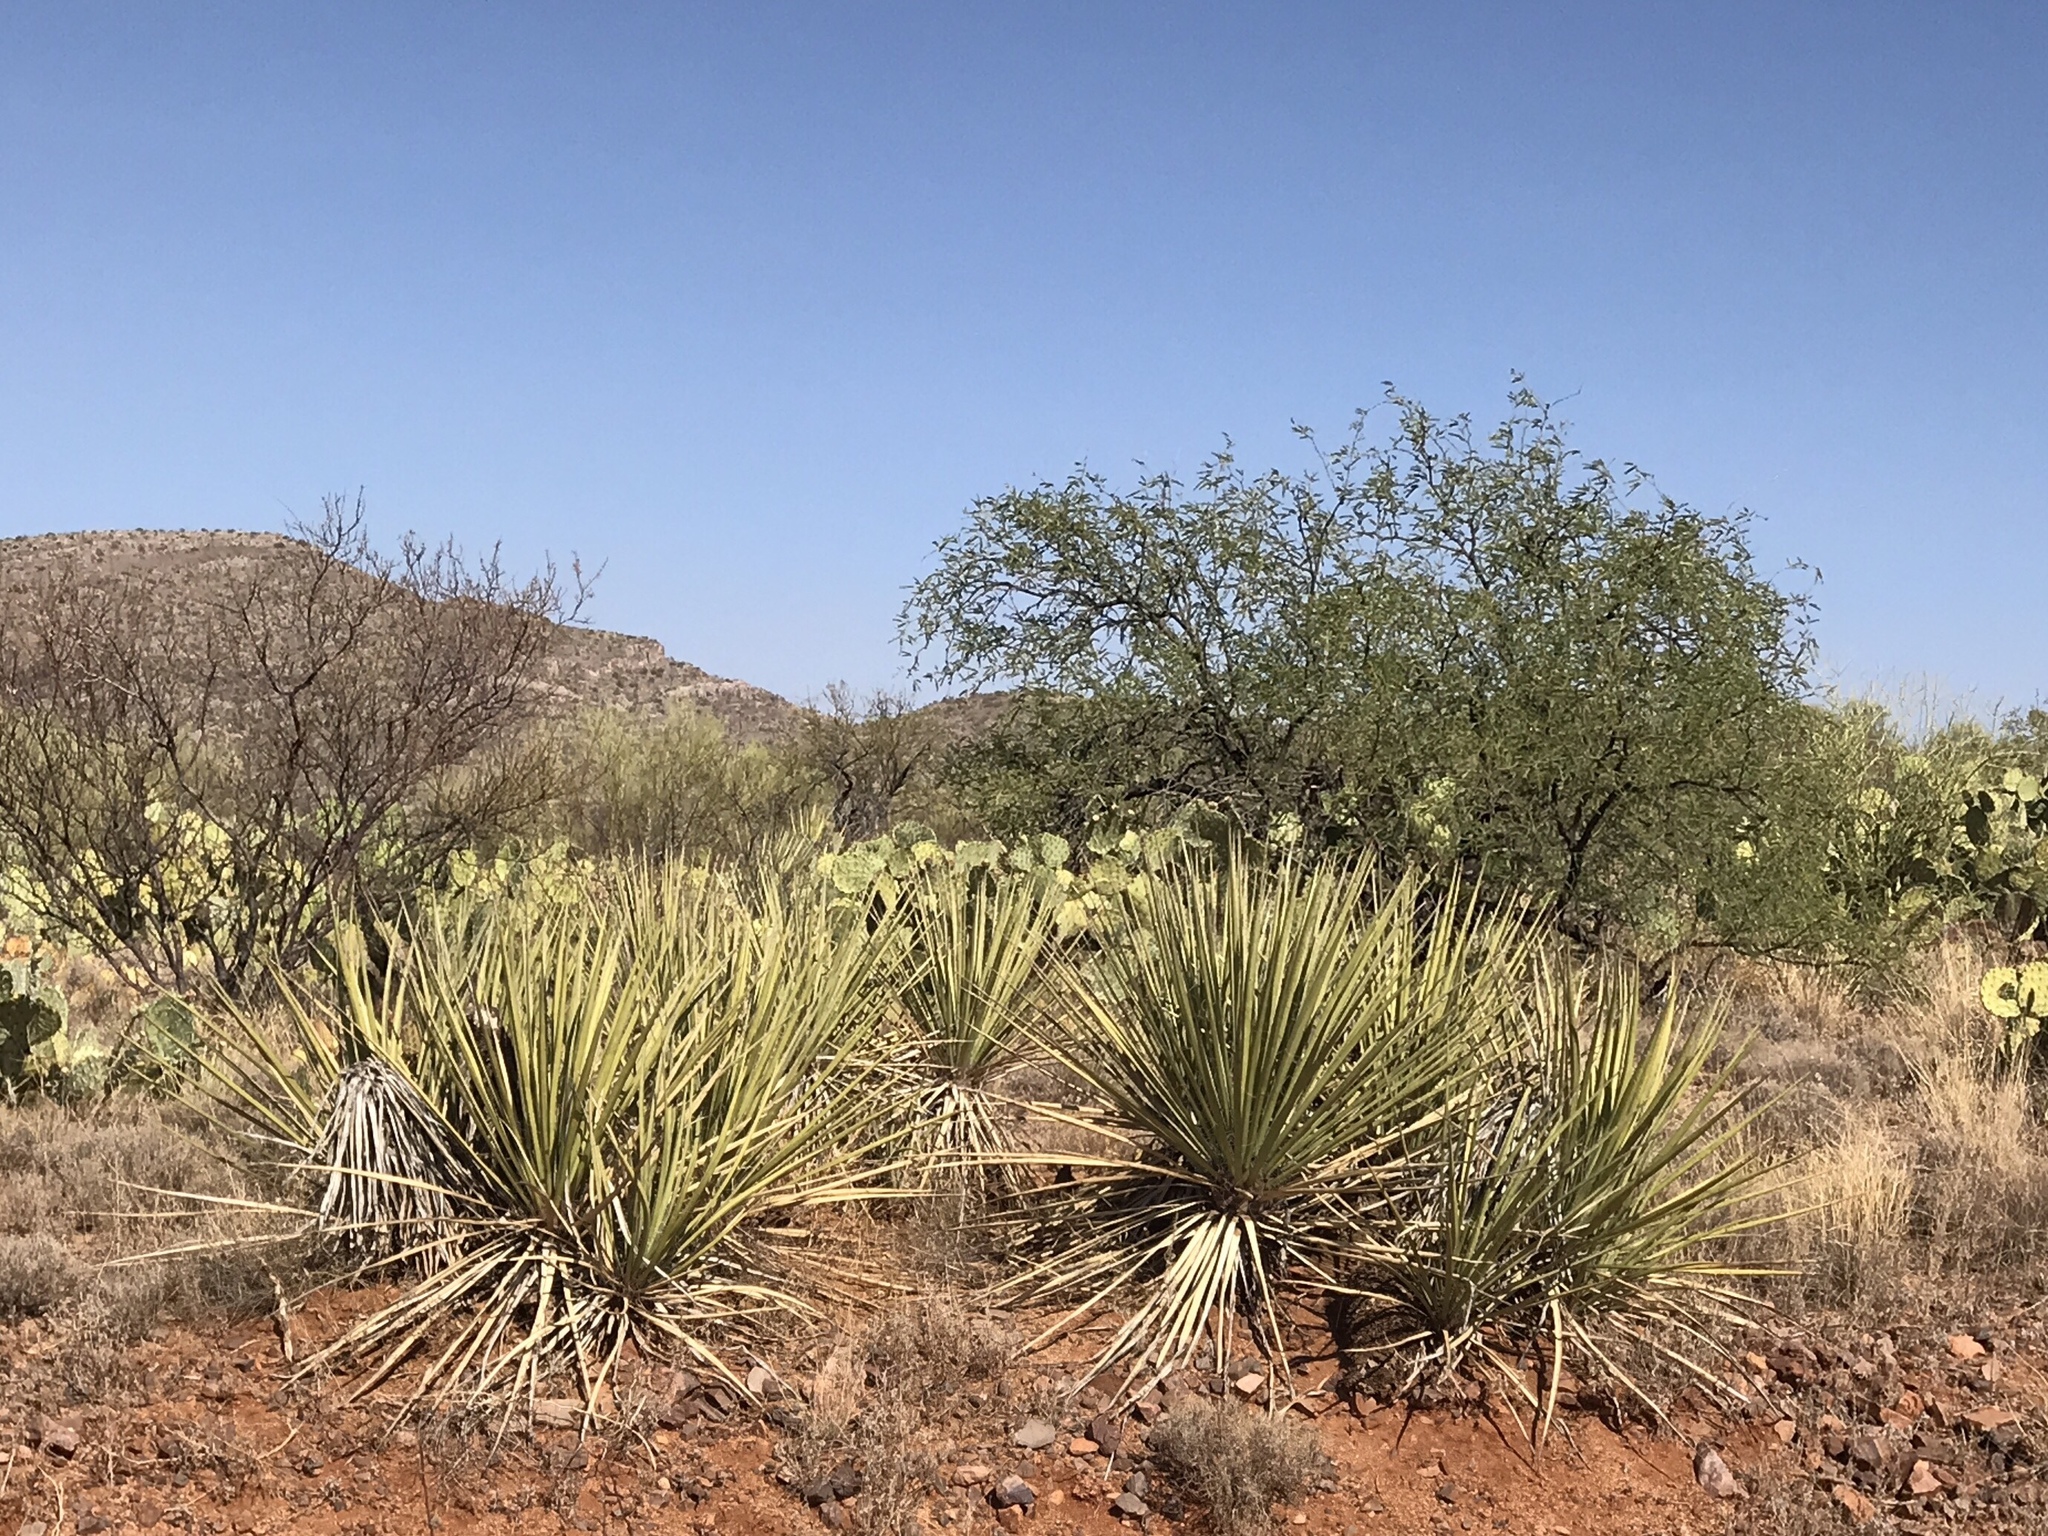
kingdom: Plantae
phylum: Tracheophyta
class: Liliopsida
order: Asparagales
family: Asparagaceae
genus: Yucca
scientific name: Yucca baccata
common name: Banana yucca
